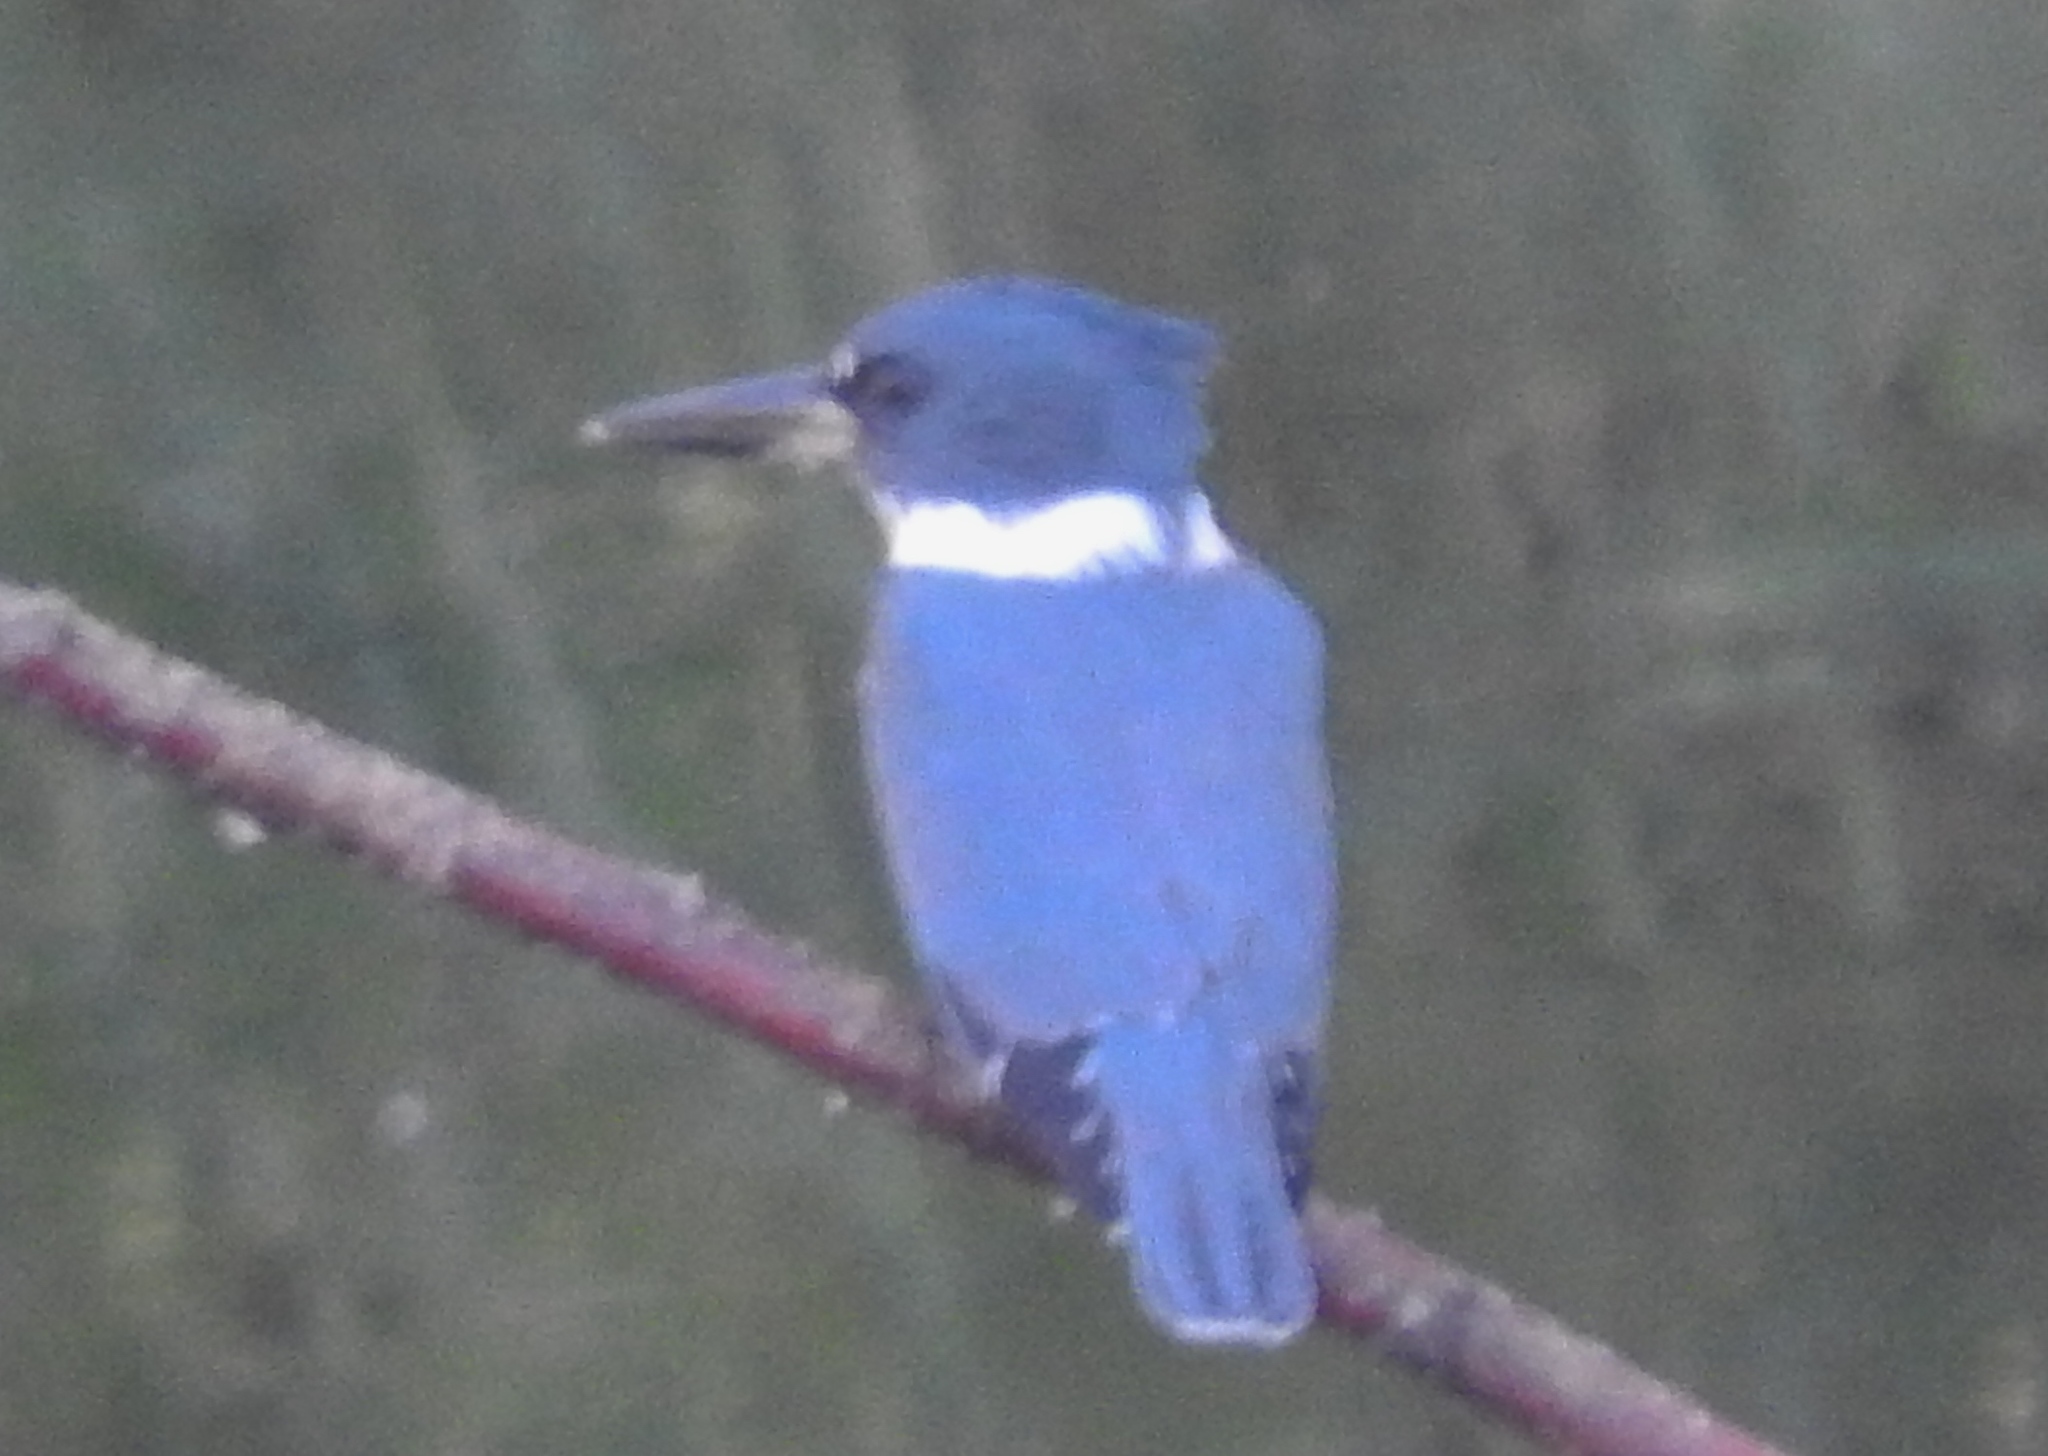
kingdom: Animalia
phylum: Chordata
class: Aves
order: Coraciiformes
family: Alcedinidae
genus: Megaceryle
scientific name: Megaceryle alcyon
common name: Belted kingfisher
